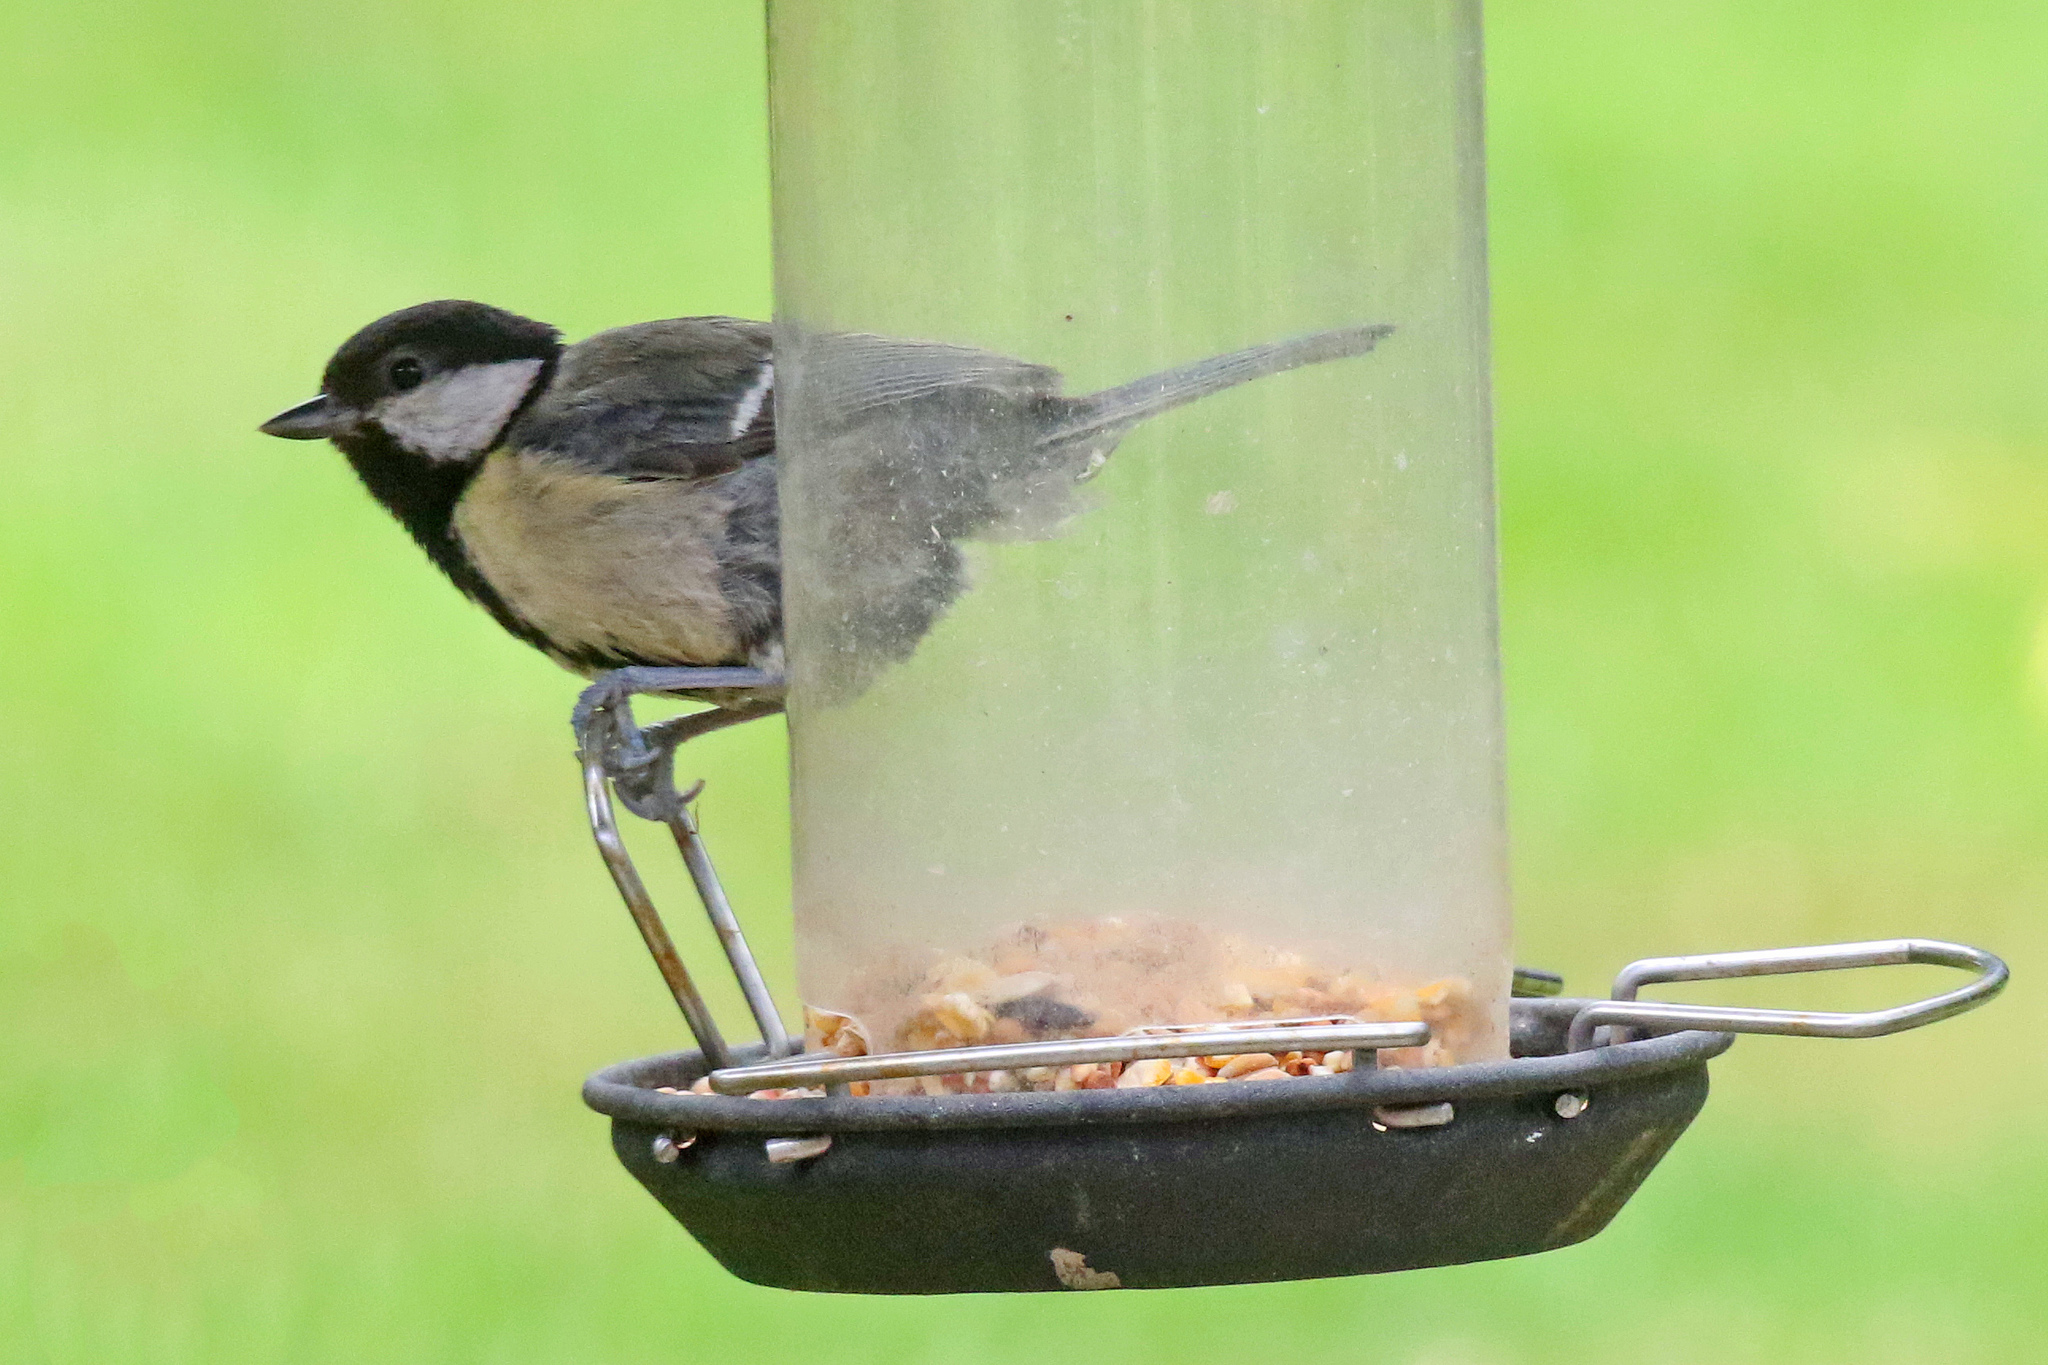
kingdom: Animalia
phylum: Chordata
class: Aves
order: Passeriformes
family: Paridae
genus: Parus
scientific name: Parus major
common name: Great tit
